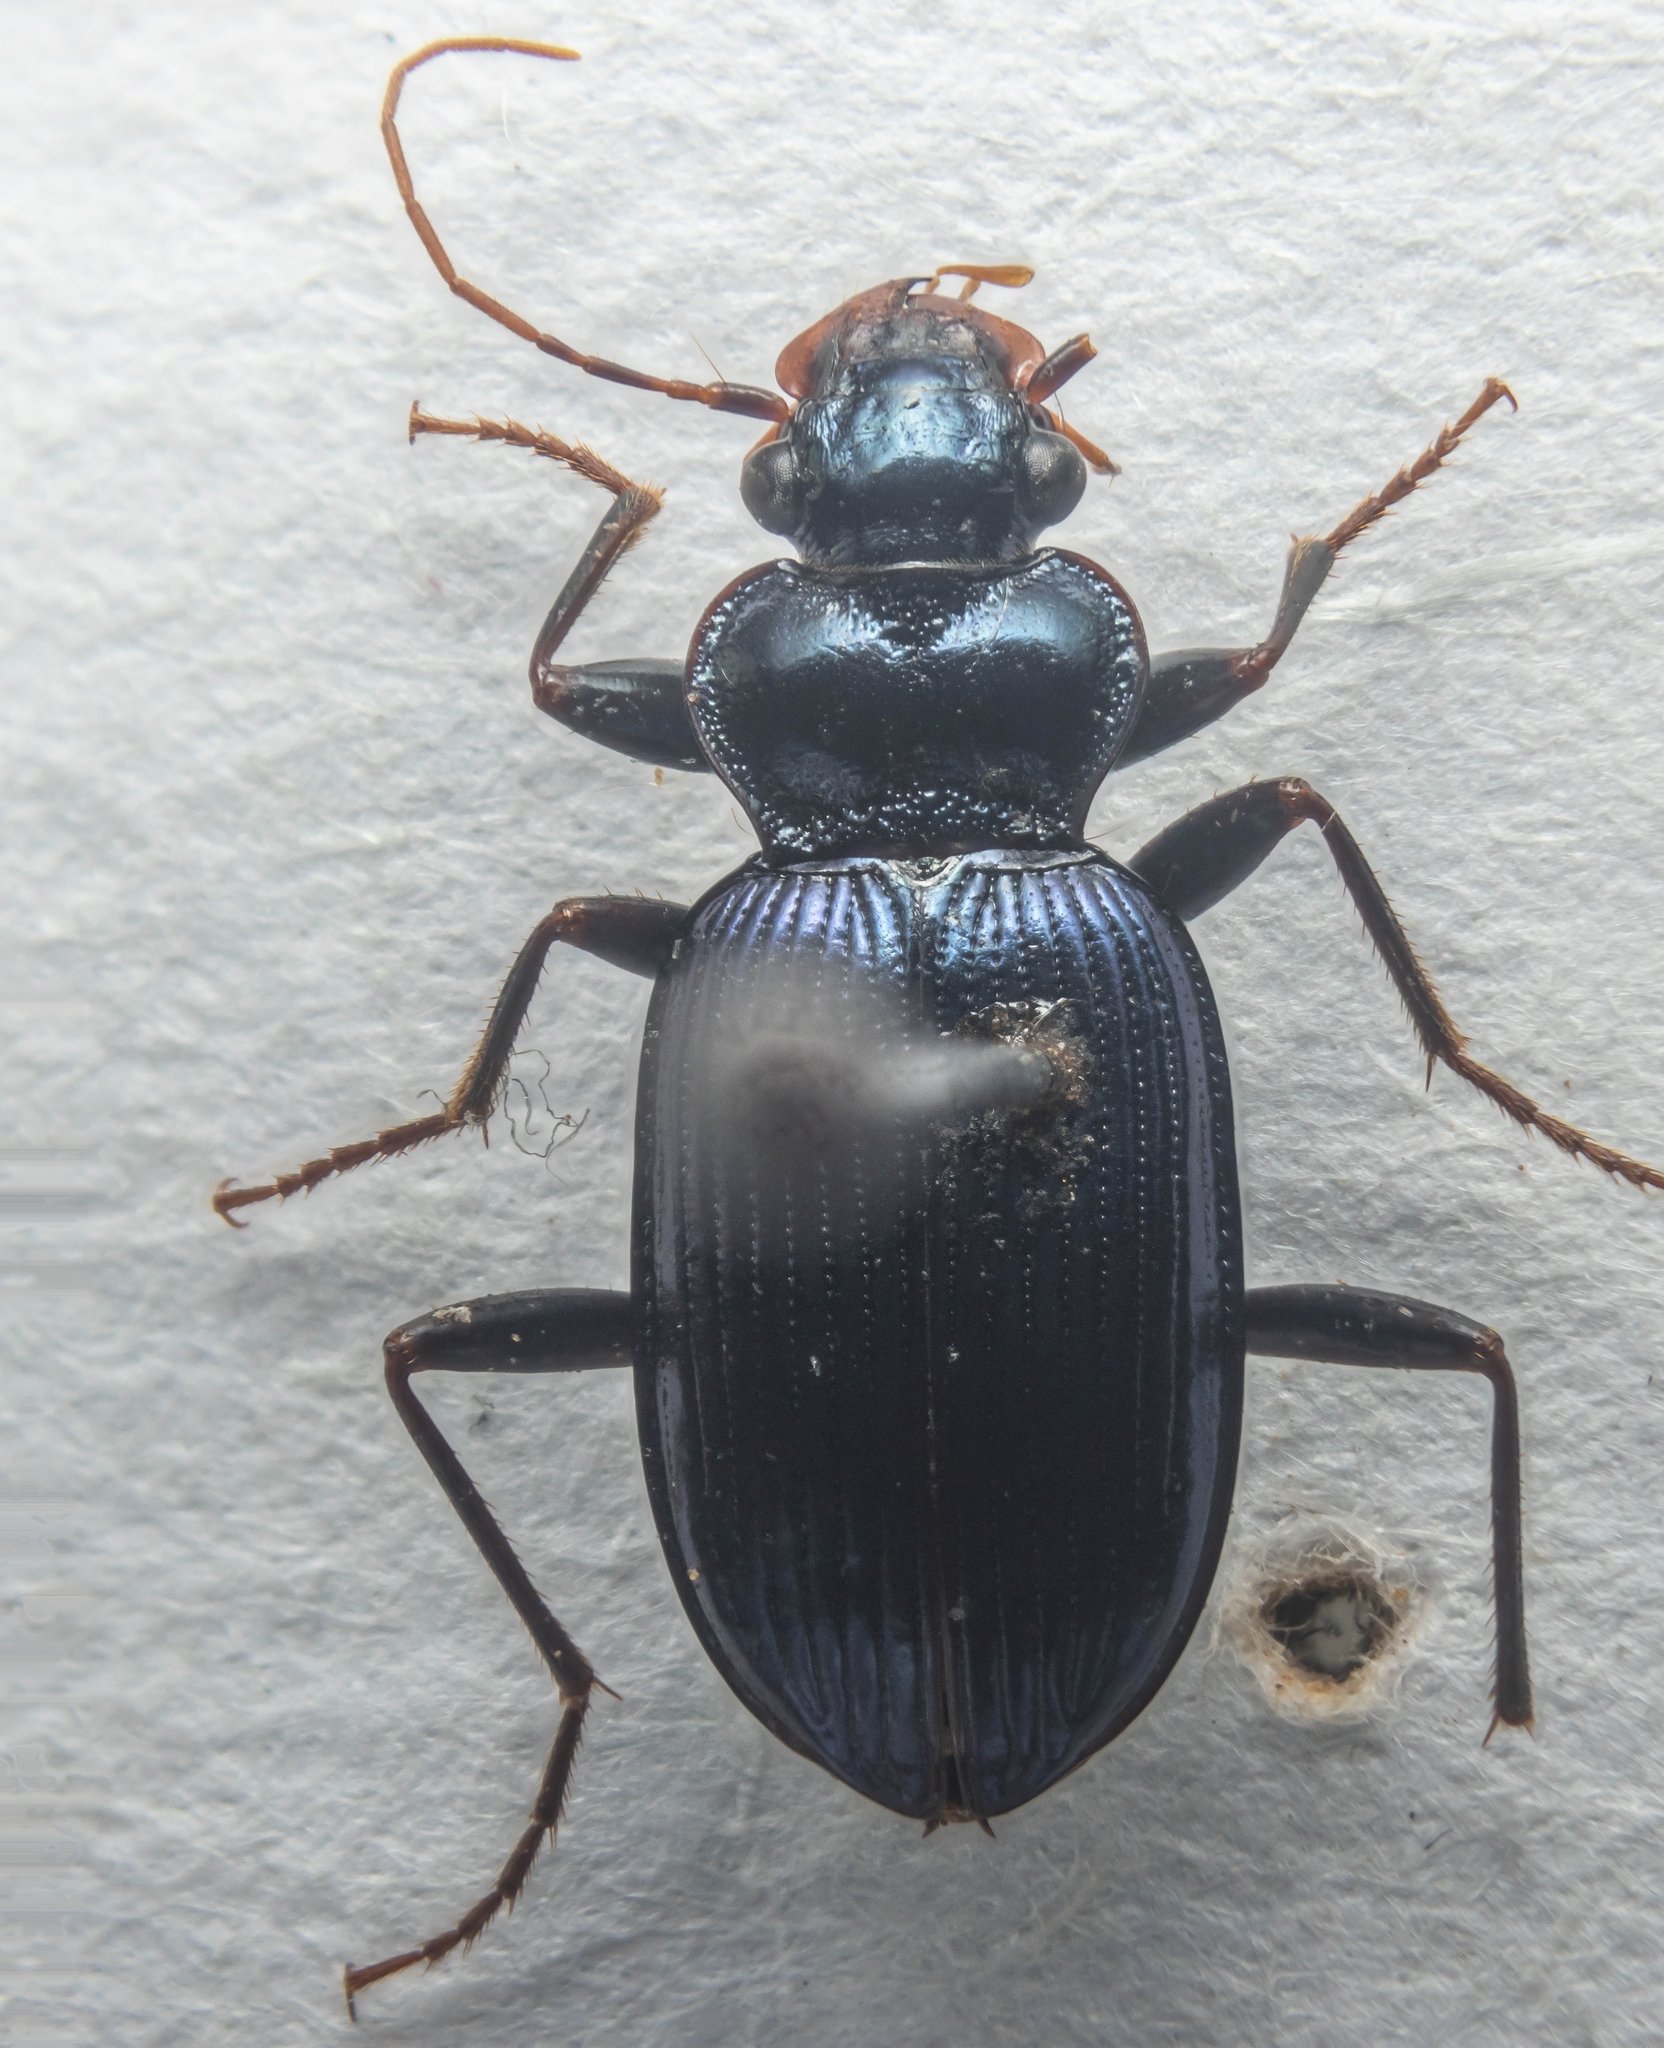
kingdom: Animalia
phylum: Arthropoda
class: Insecta
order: Coleoptera
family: Carabidae
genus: Leistus
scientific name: Leistus spinibarbis
